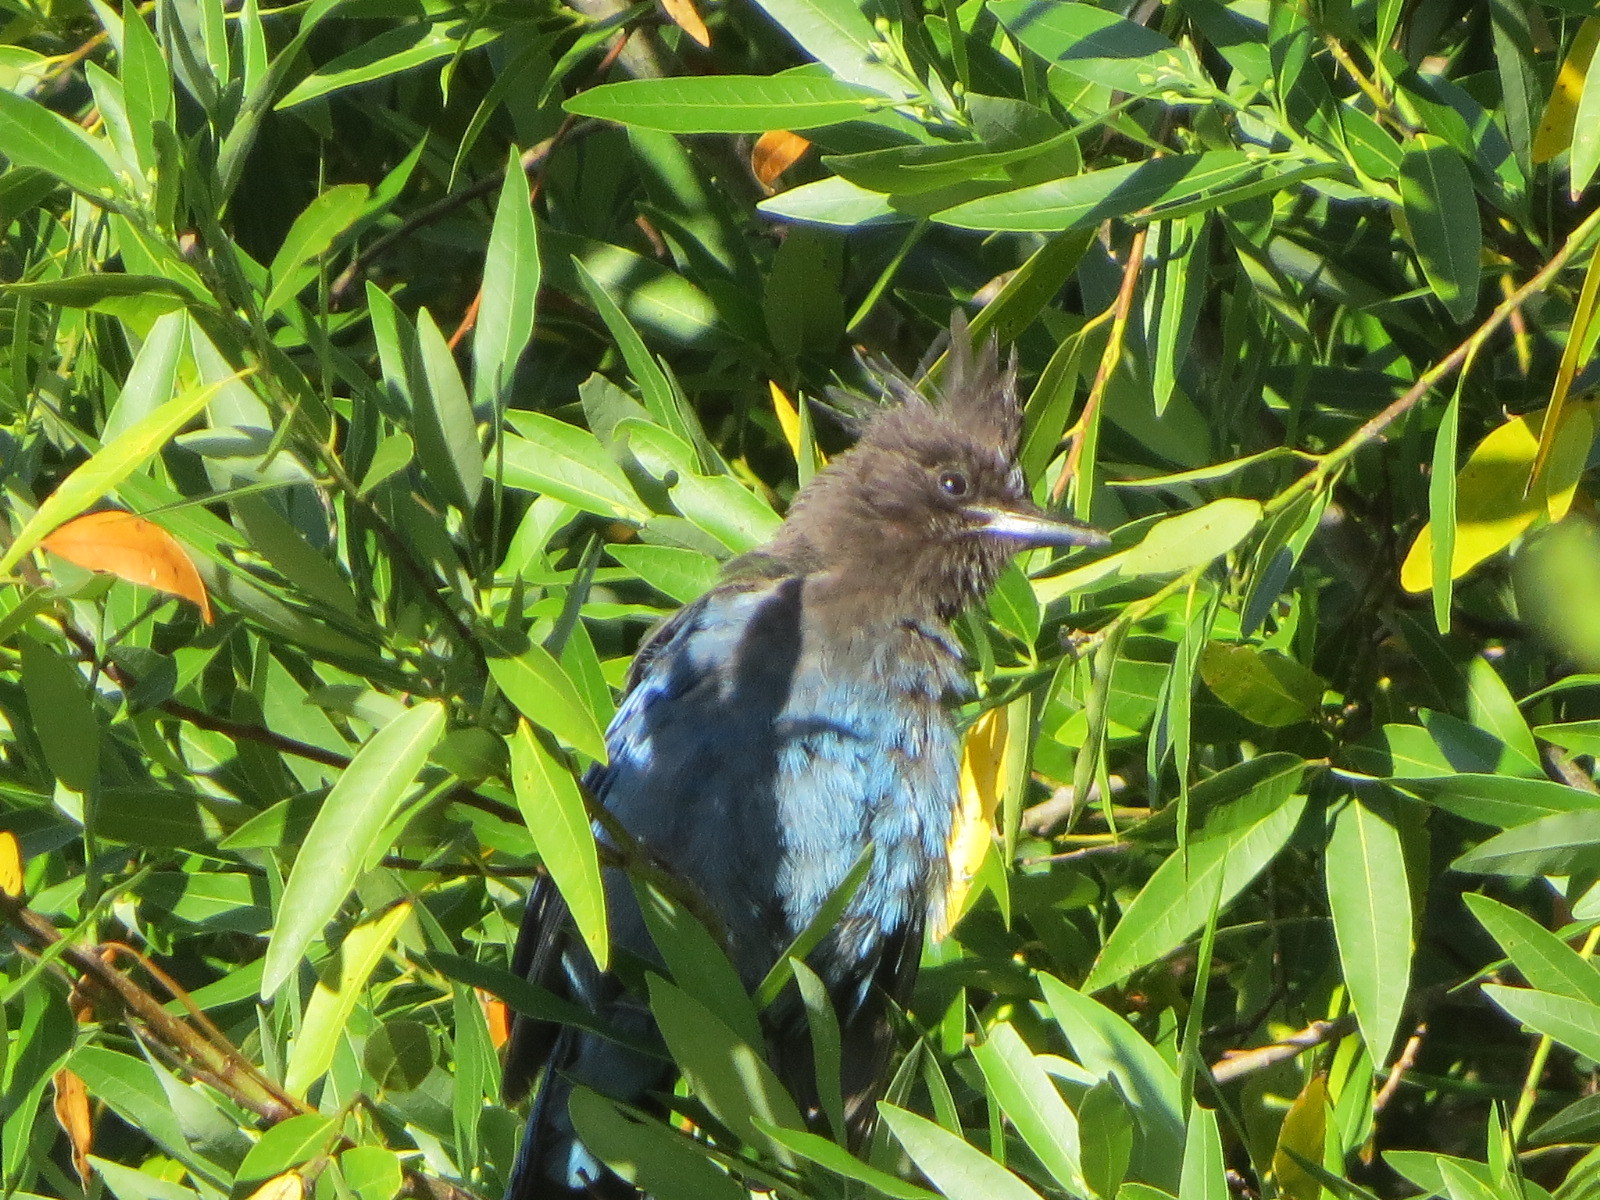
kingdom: Animalia
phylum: Chordata
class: Aves
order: Passeriformes
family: Corvidae
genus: Cyanocitta
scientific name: Cyanocitta stelleri
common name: Steller's jay
